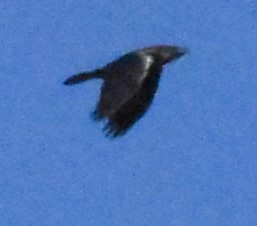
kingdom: Animalia
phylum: Chordata
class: Aves
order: Passeriformes
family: Corvidae
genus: Corvus
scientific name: Corvus corax
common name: Common raven
